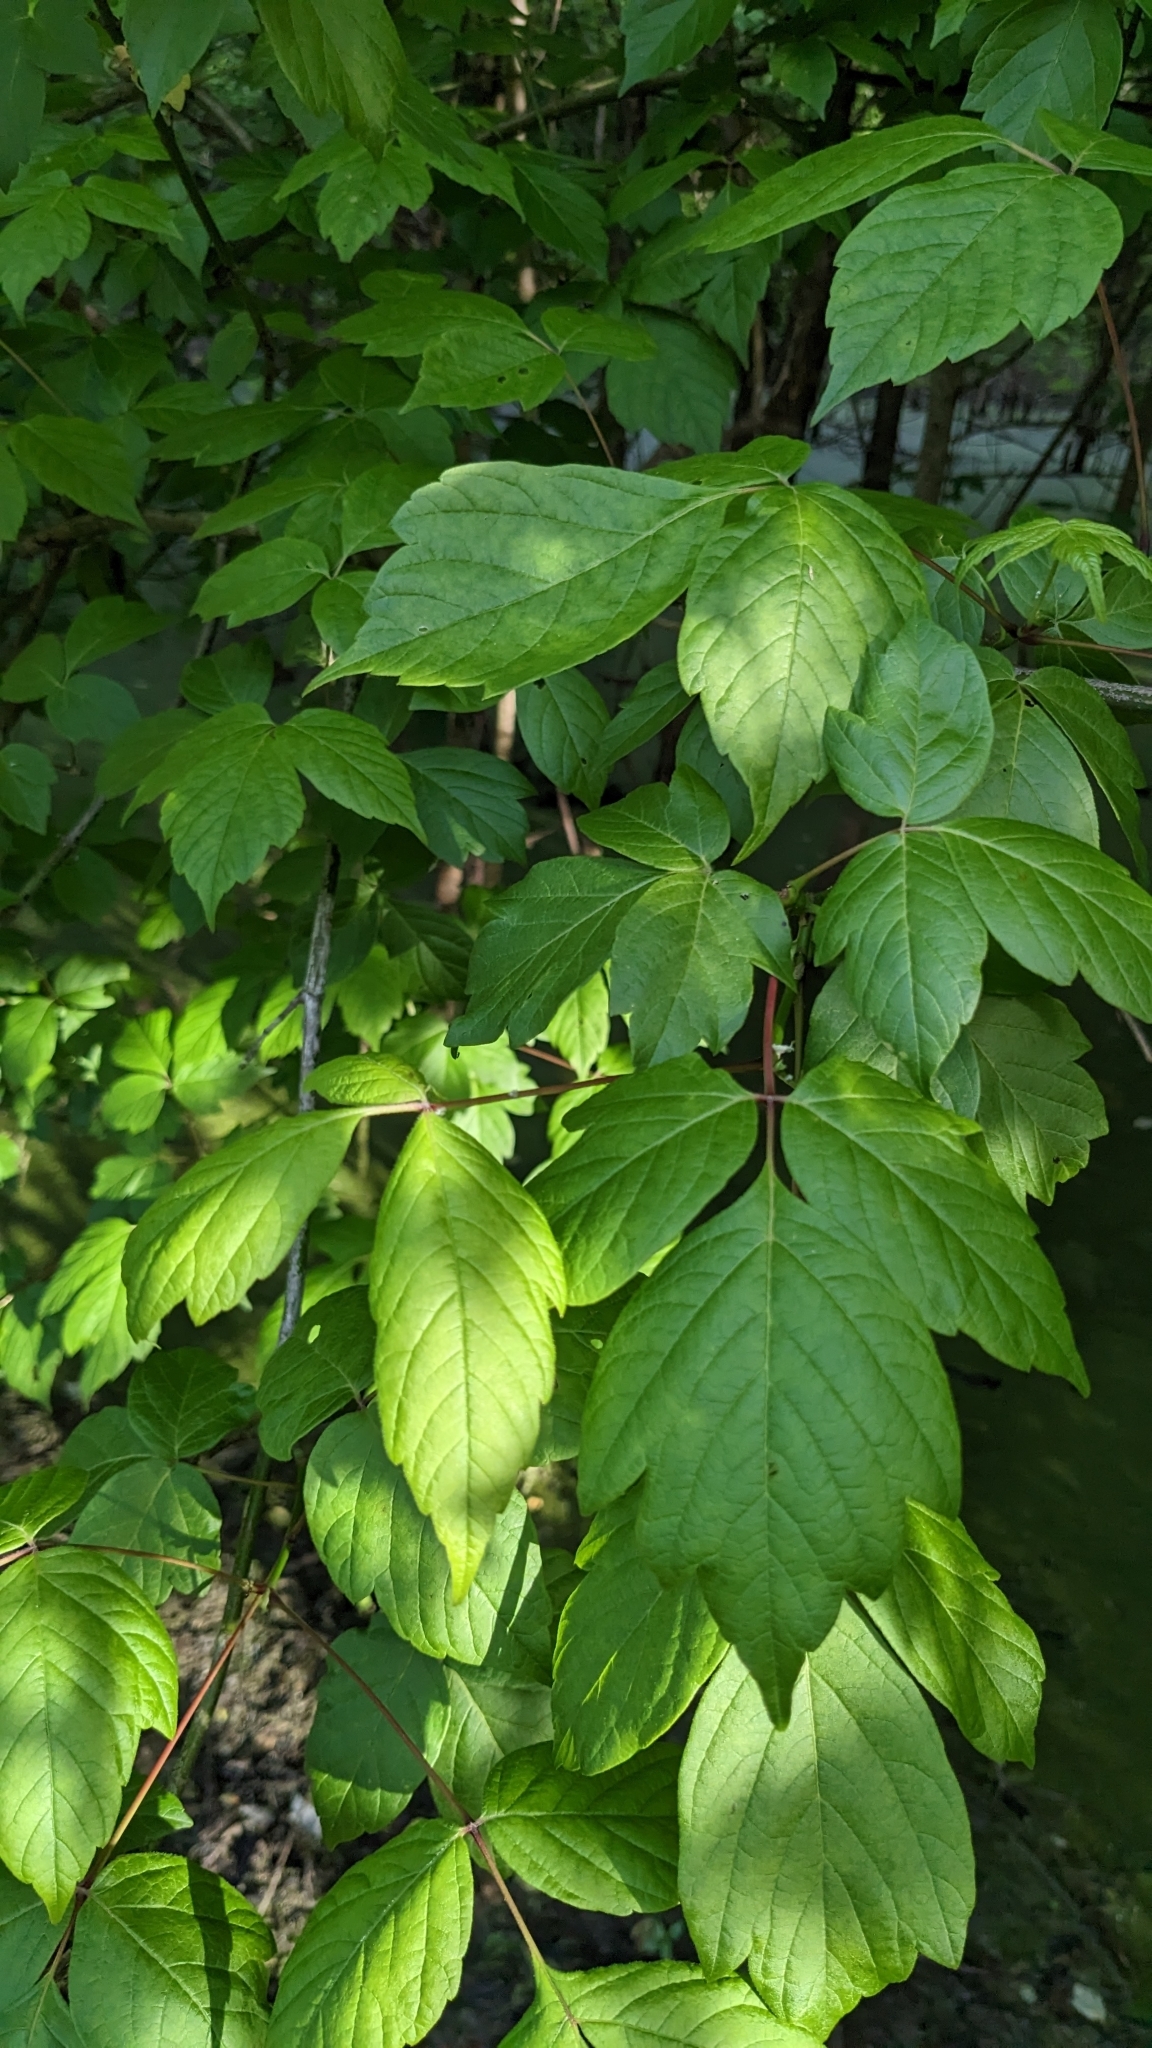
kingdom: Plantae
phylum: Tracheophyta
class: Magnoliopsida
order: Sapindales
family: Sapindaceae
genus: Acer
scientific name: Acer negundo
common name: Ashleaf maple
